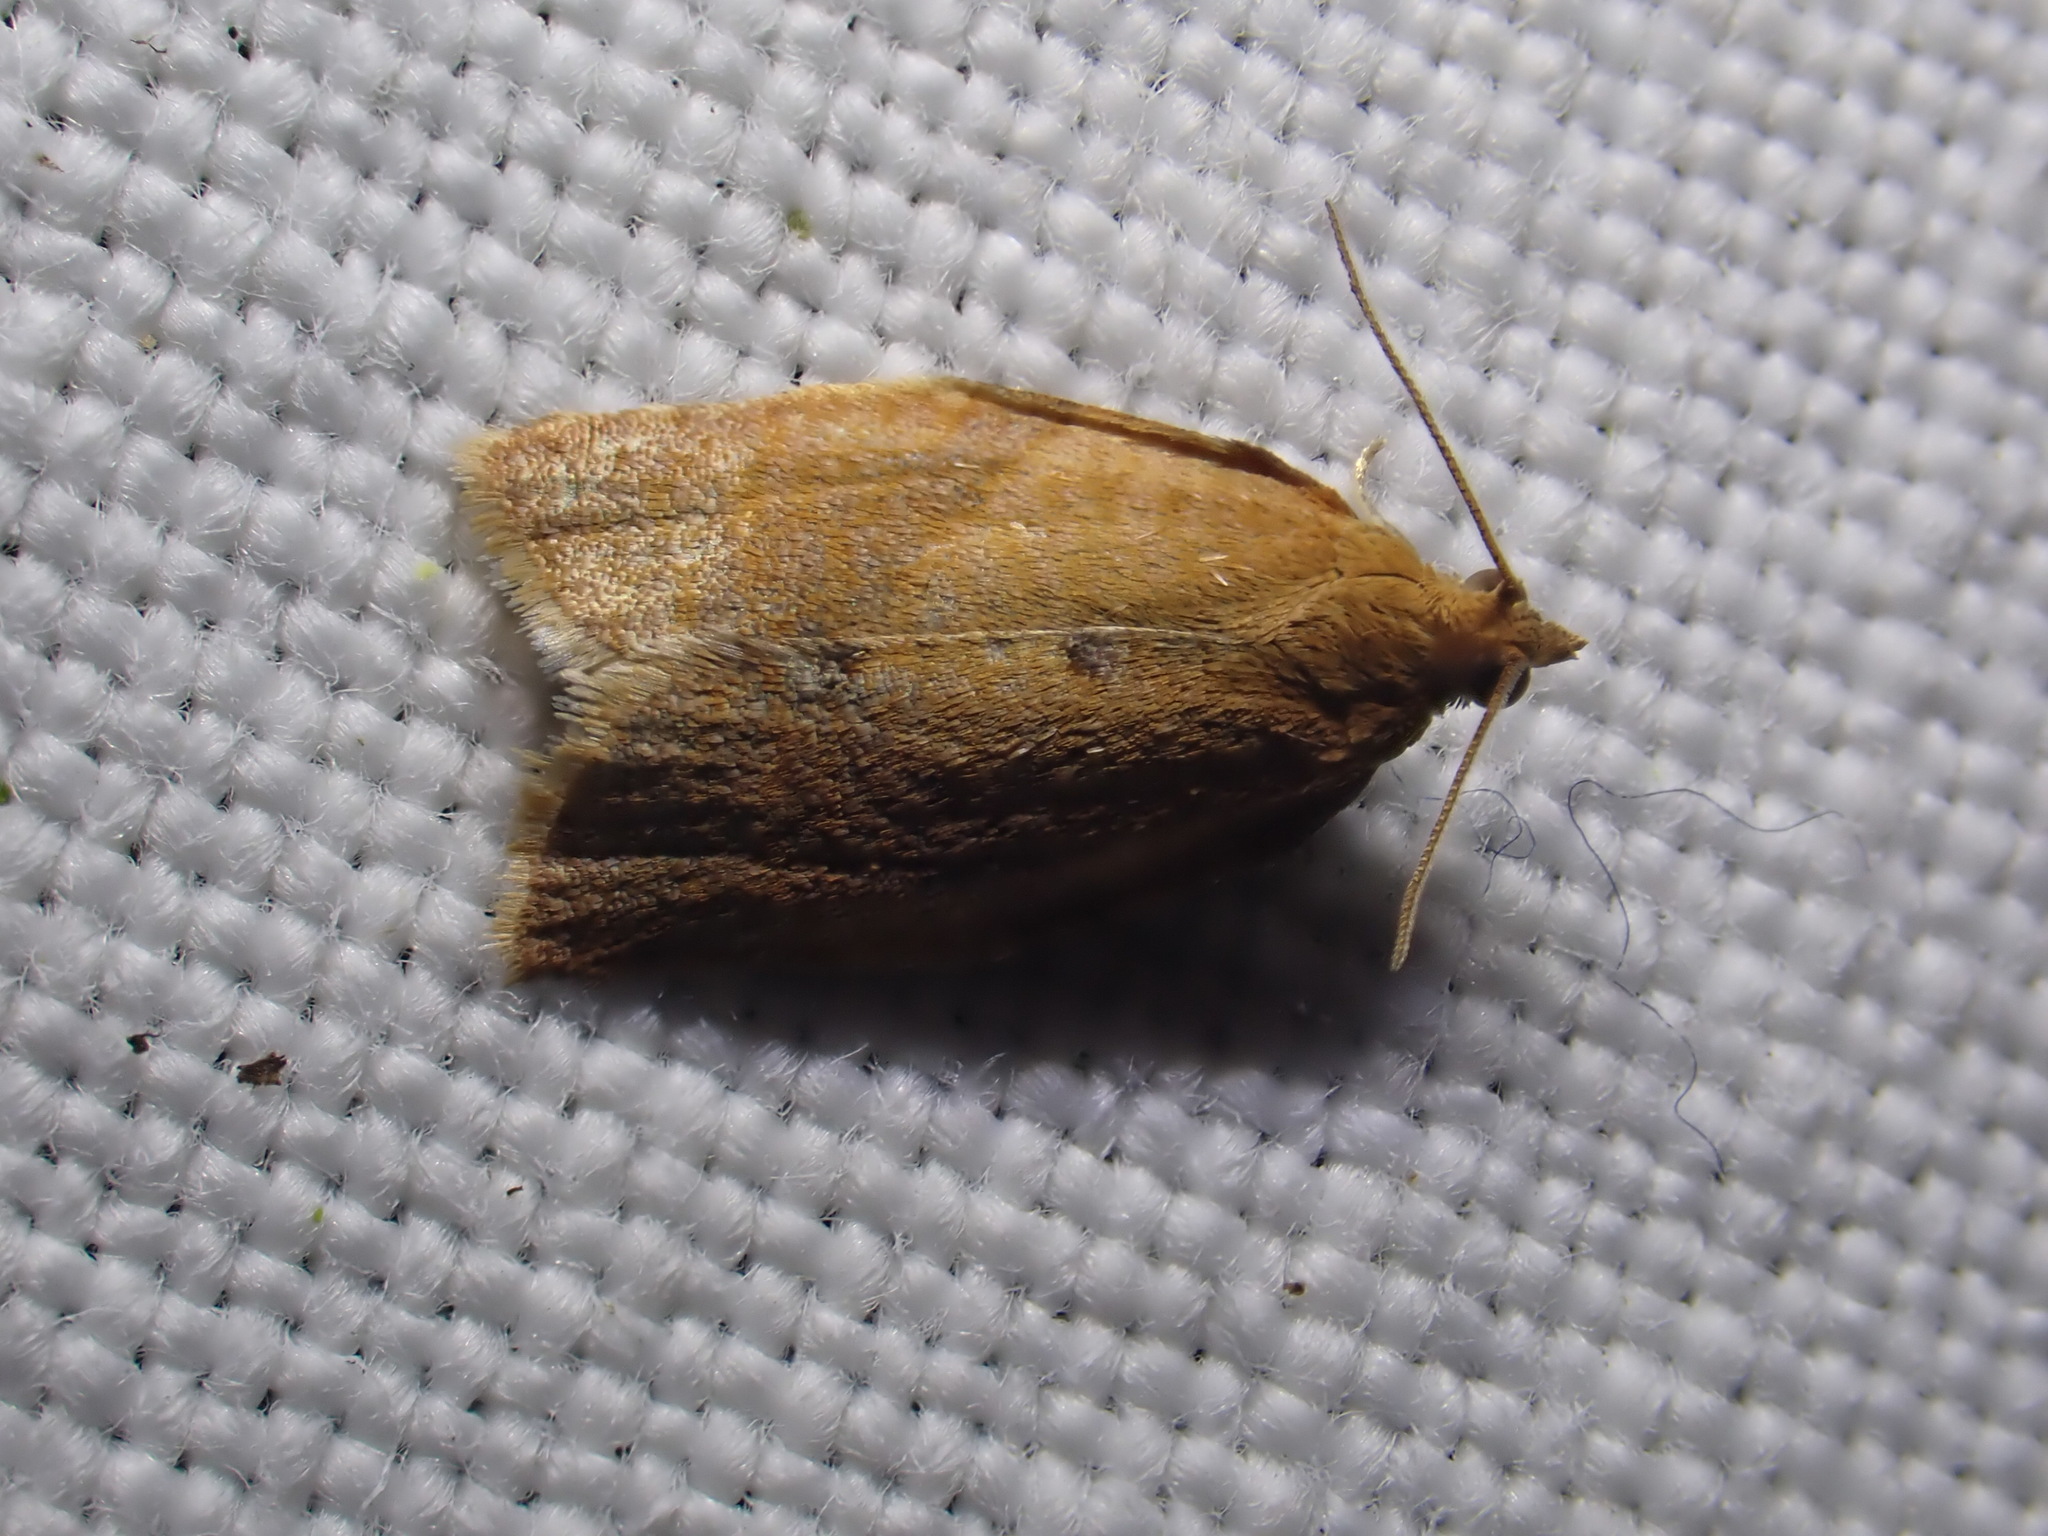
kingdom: Animalia
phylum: Arthropoda
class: Insecta
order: Lepidoptera
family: Tortricidae
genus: Clepsis
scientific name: Clepsis consimilana
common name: Privet tortrix
